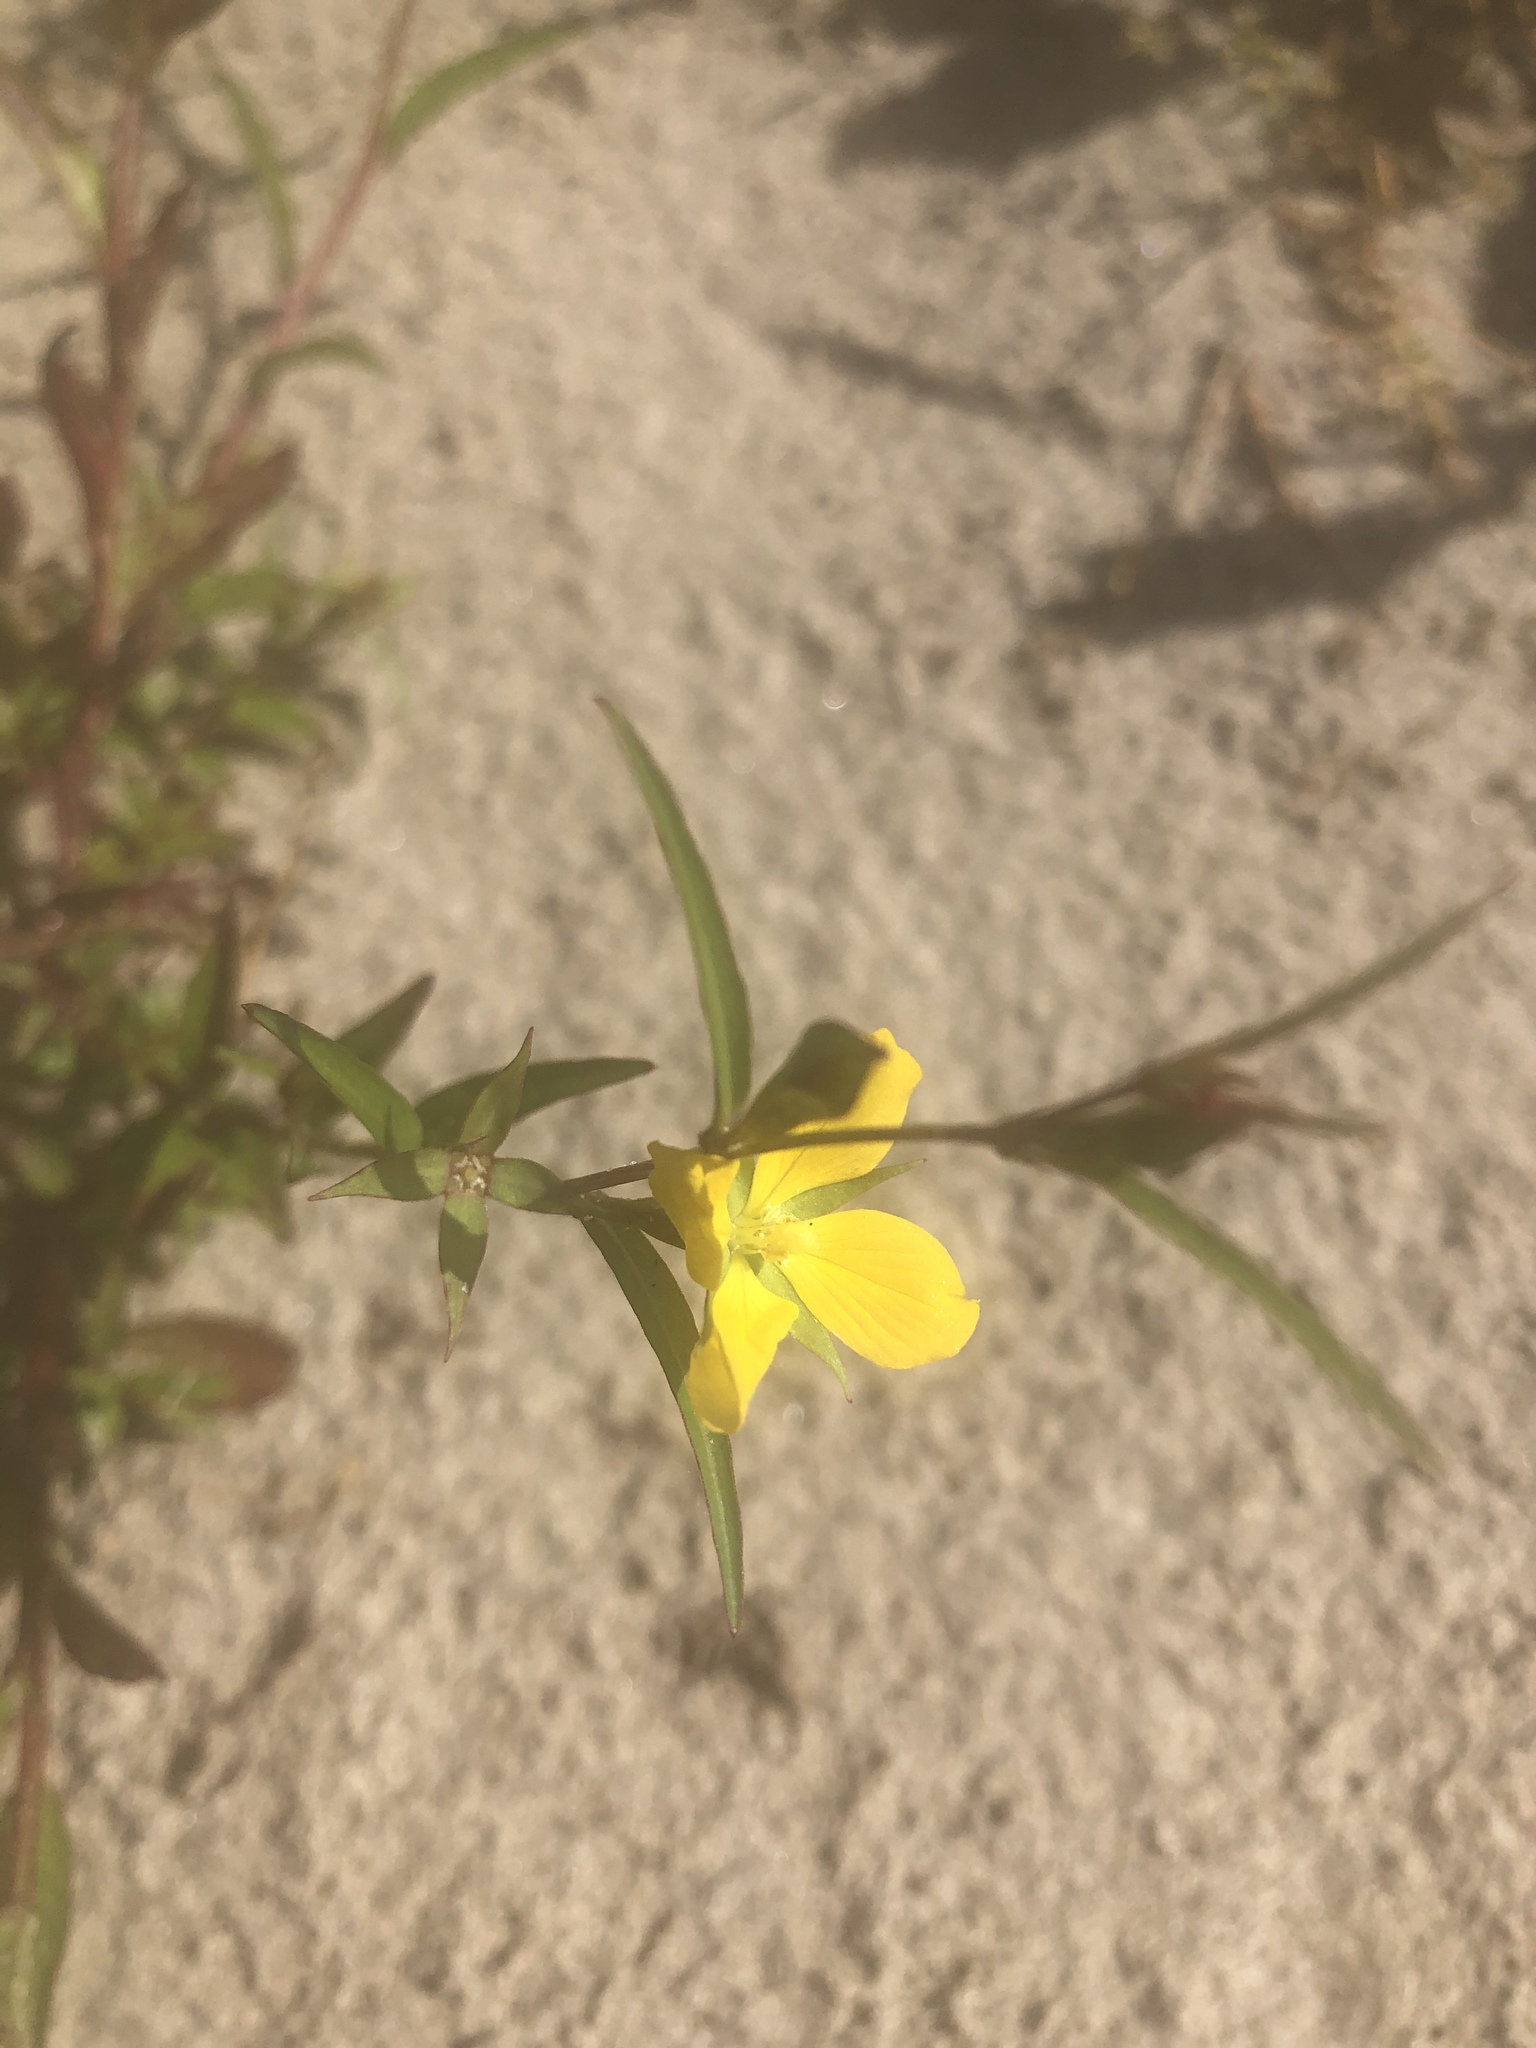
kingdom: Plantae
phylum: Tracheophyta
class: Magnoliopsida
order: Myrtales
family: Onagraceae
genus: Ludwigia
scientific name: Ludwigia decurrens
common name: Winged water-primrose
